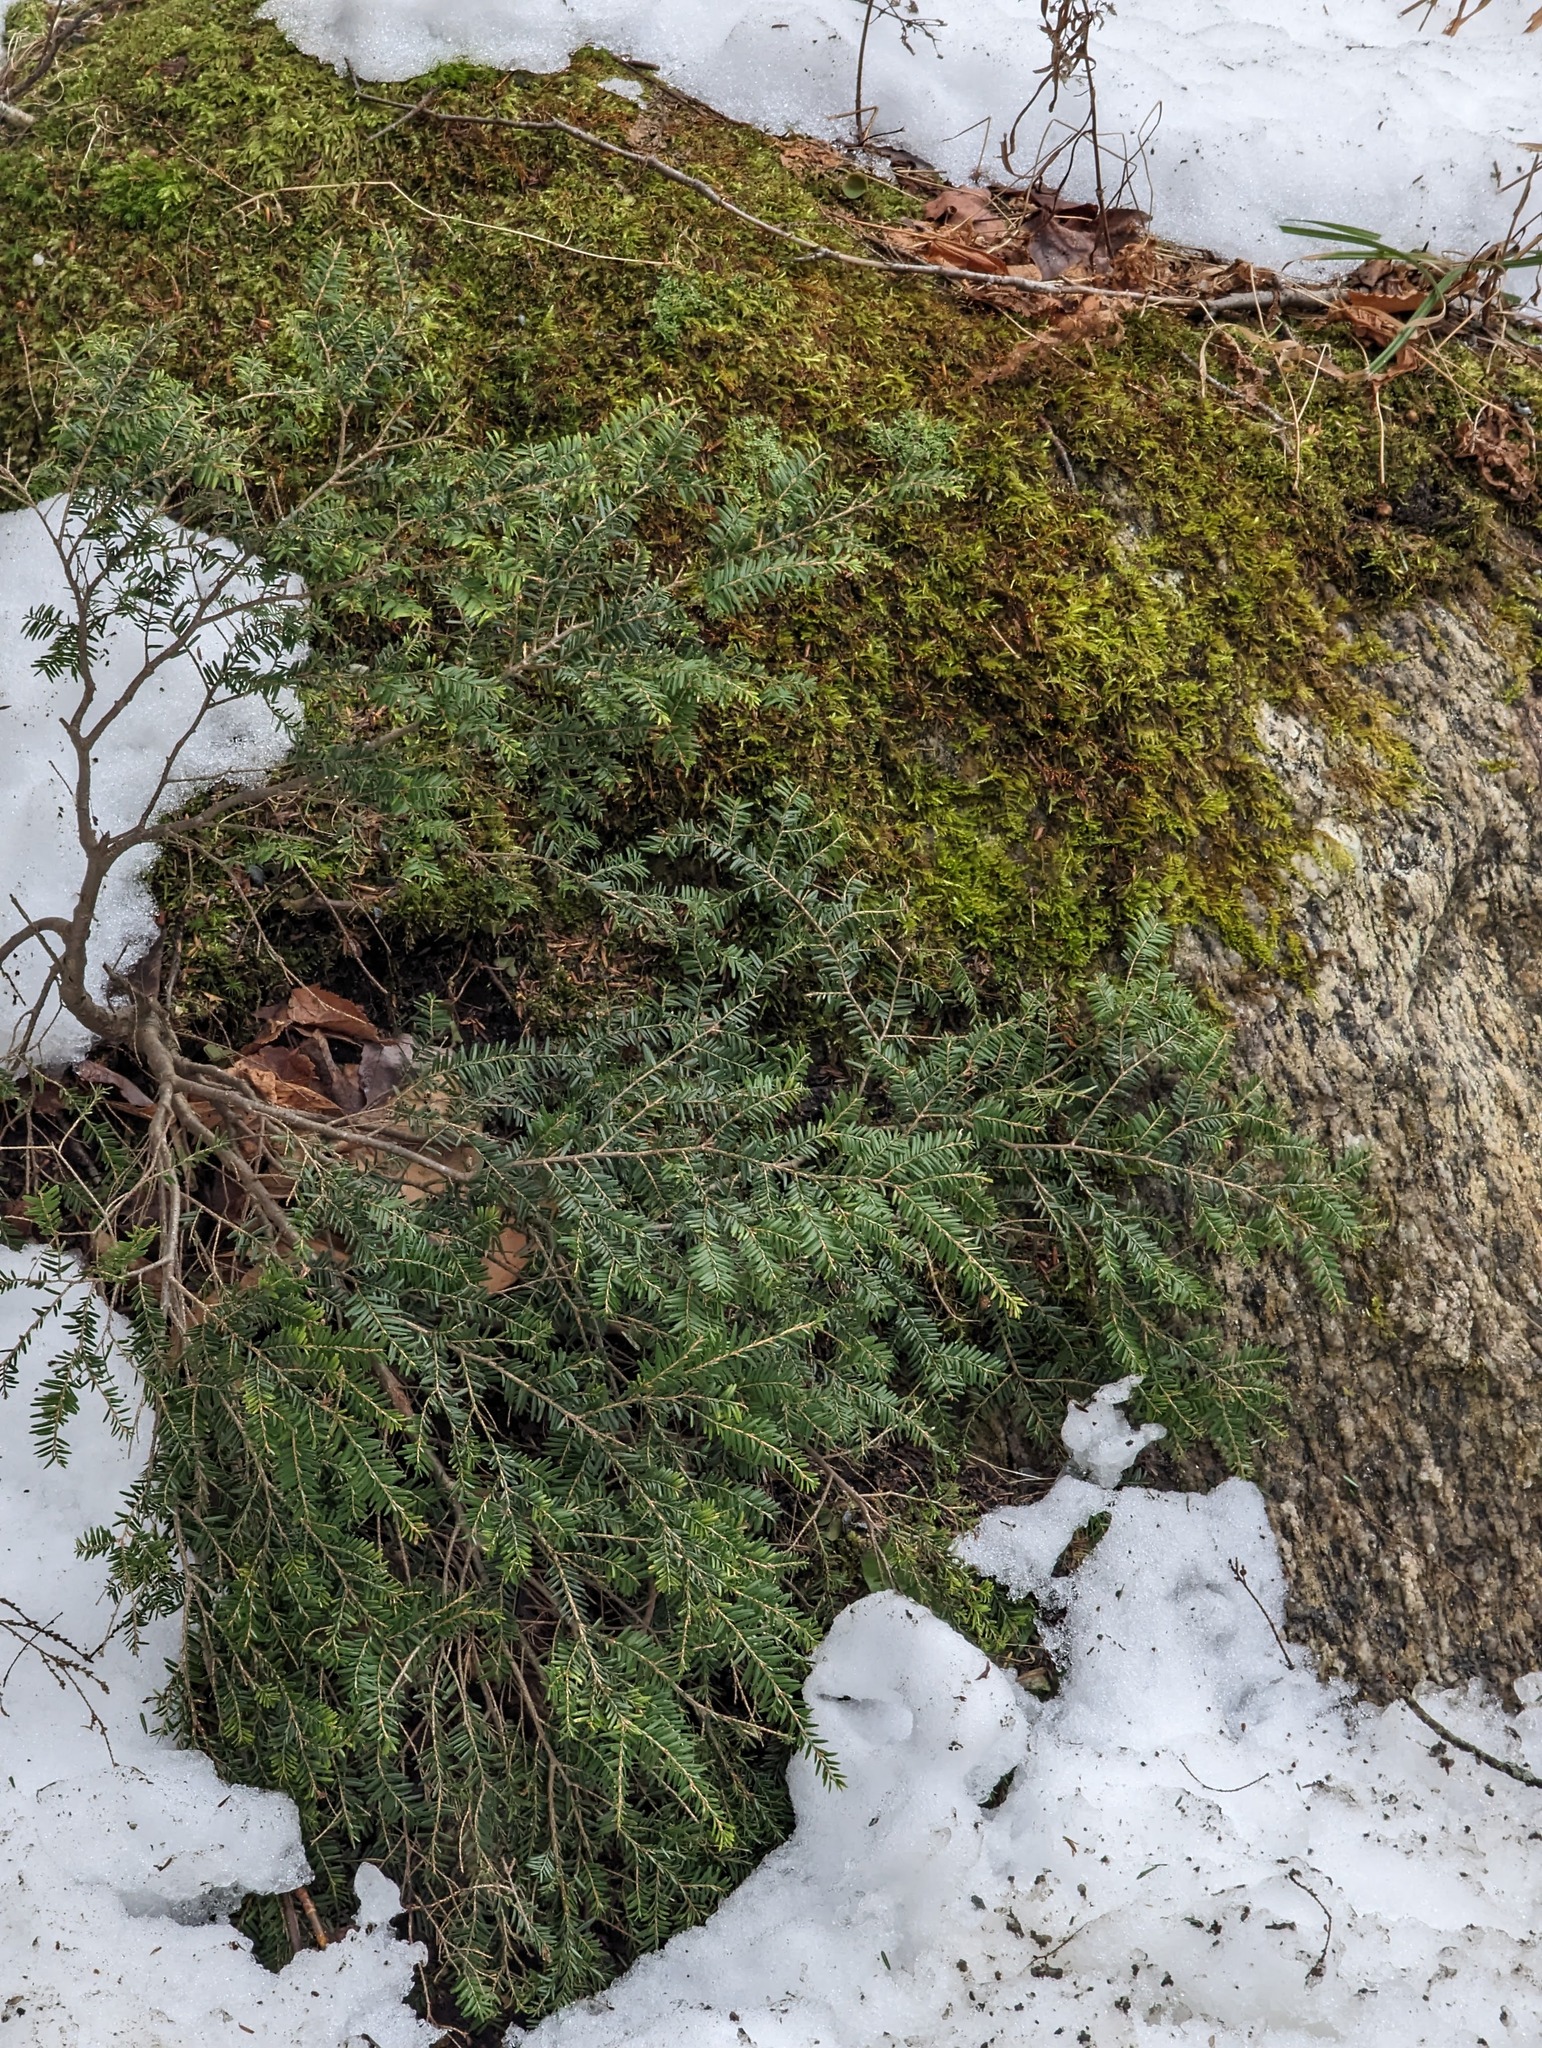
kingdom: Plantae
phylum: Tracheophyta
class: Pinopsida
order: Pinales
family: Pinaceae
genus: Tsuga
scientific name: Tsuga canadensis
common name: Eastern hemlock
